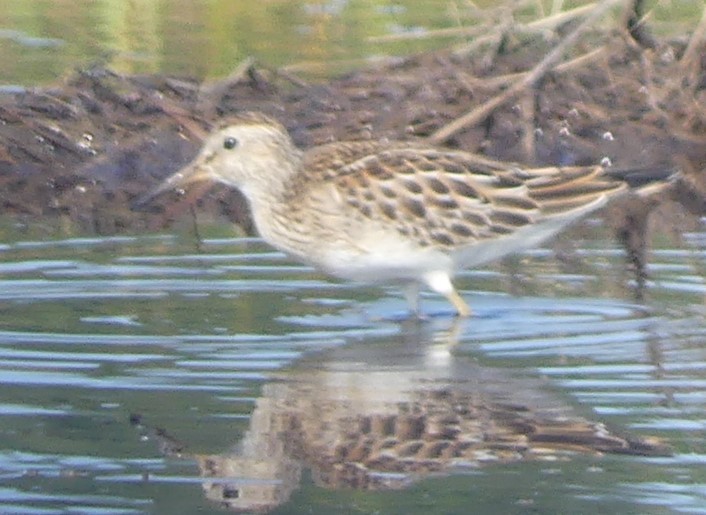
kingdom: Animalia
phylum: Chordata
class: Aves
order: Charadriiformes
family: Scolopacidae
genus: Calidris
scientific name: Calidris melanotos
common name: Pectoral sandpiper
